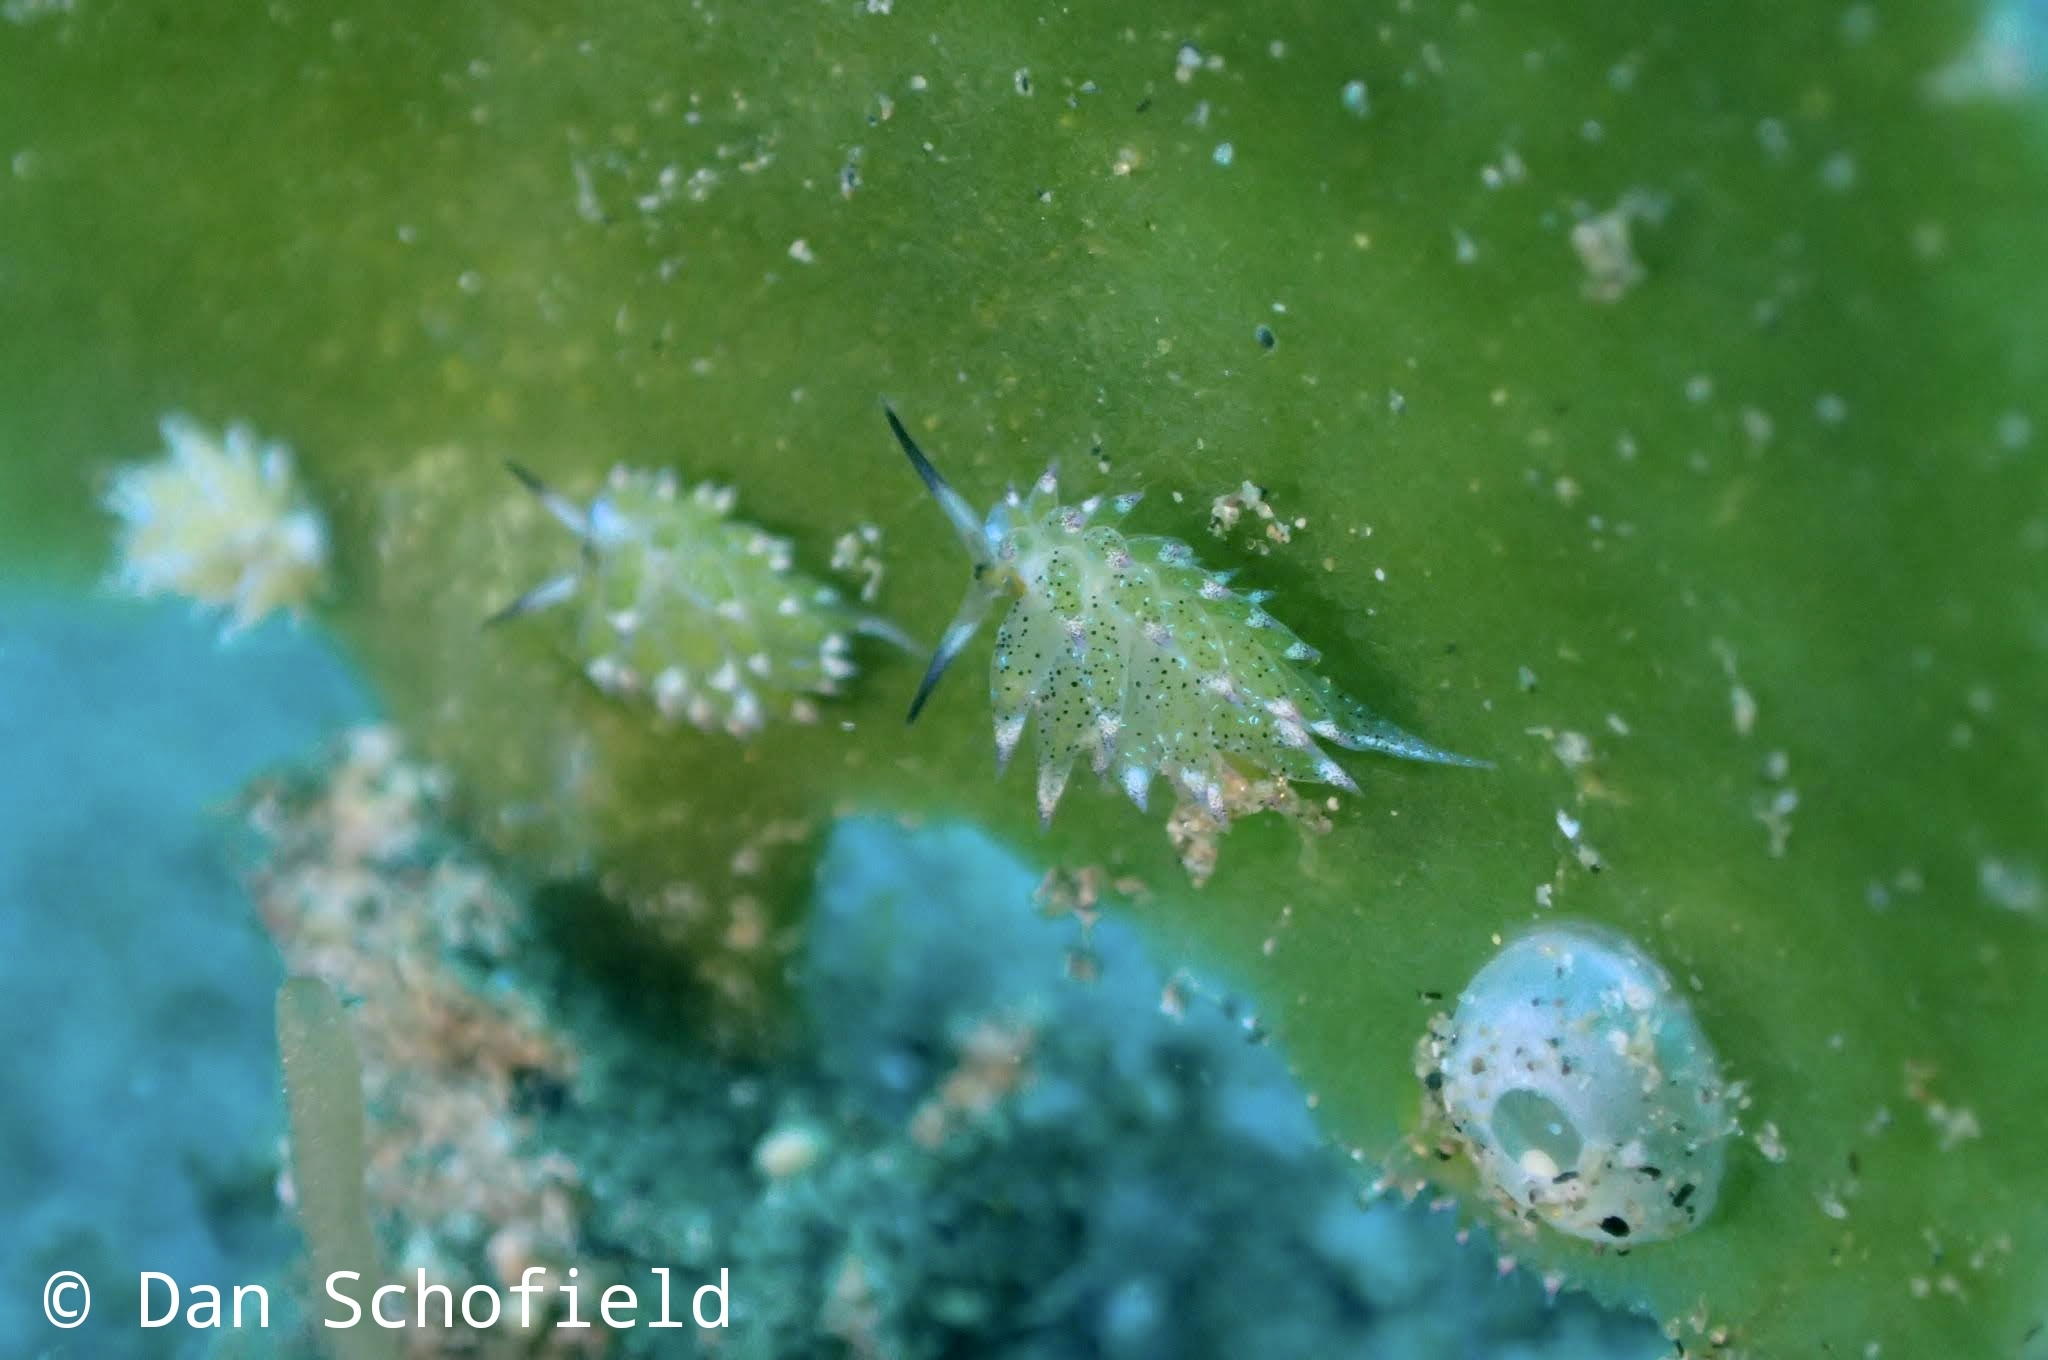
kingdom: Animalia
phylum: Mollusca
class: Gastropoda
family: Costasiellidae
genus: Costasiella
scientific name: Costasiella kuroshimae
